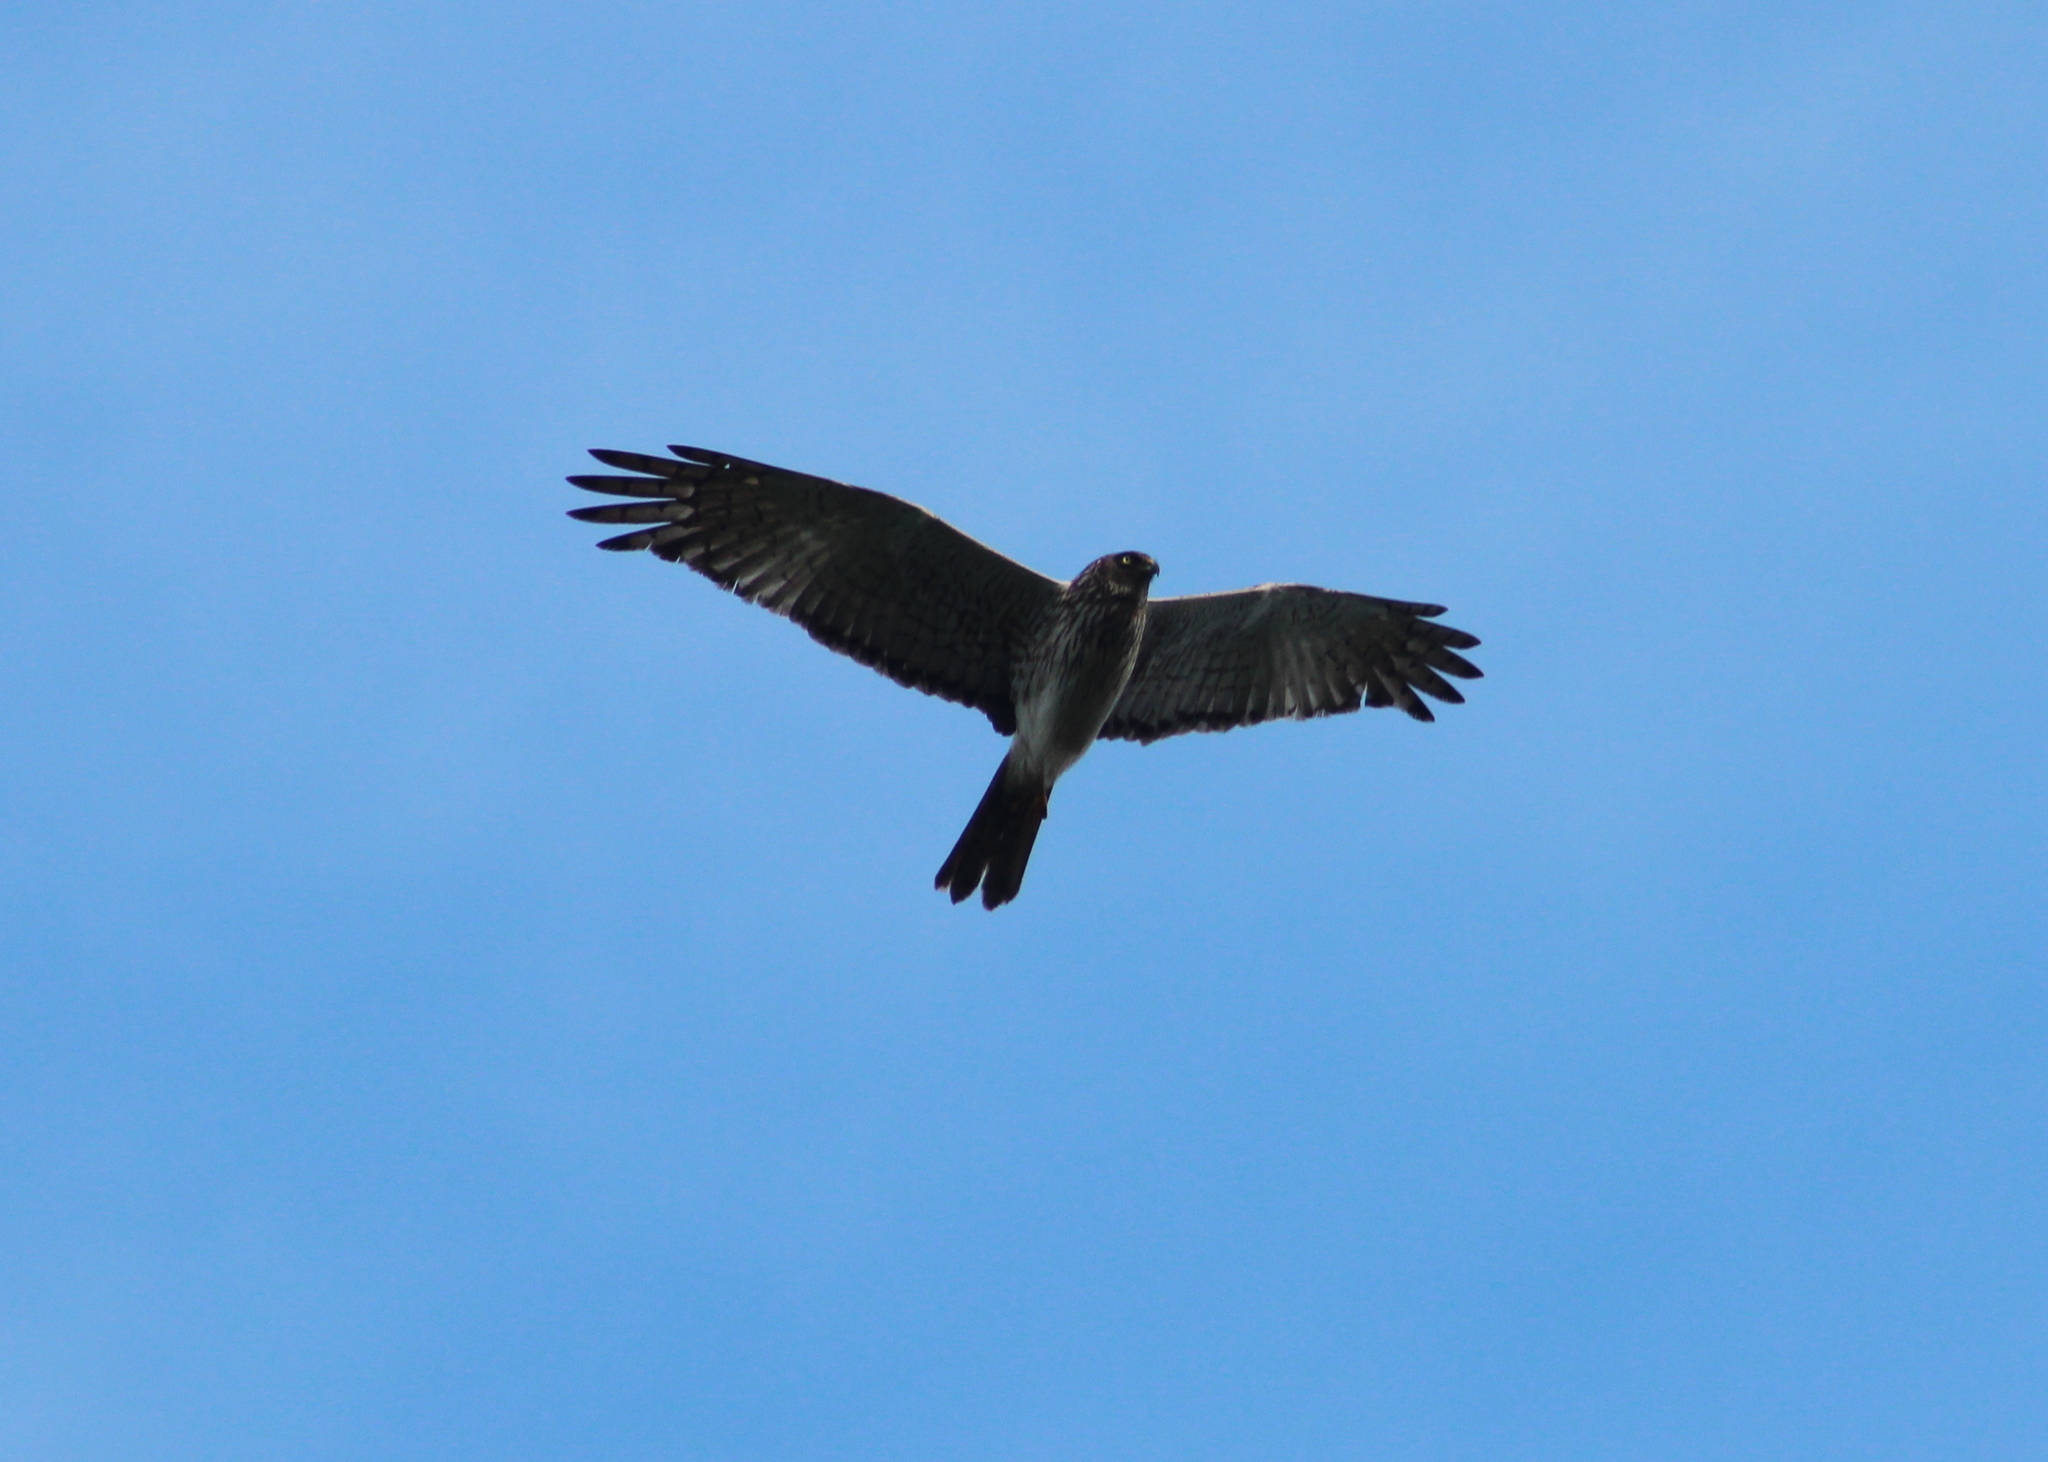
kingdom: Animalia
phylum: Chordata
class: Aves
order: Accipitriformes
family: Accipitridae
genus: Circus
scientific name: Circus approximans
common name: Swamp harrier
